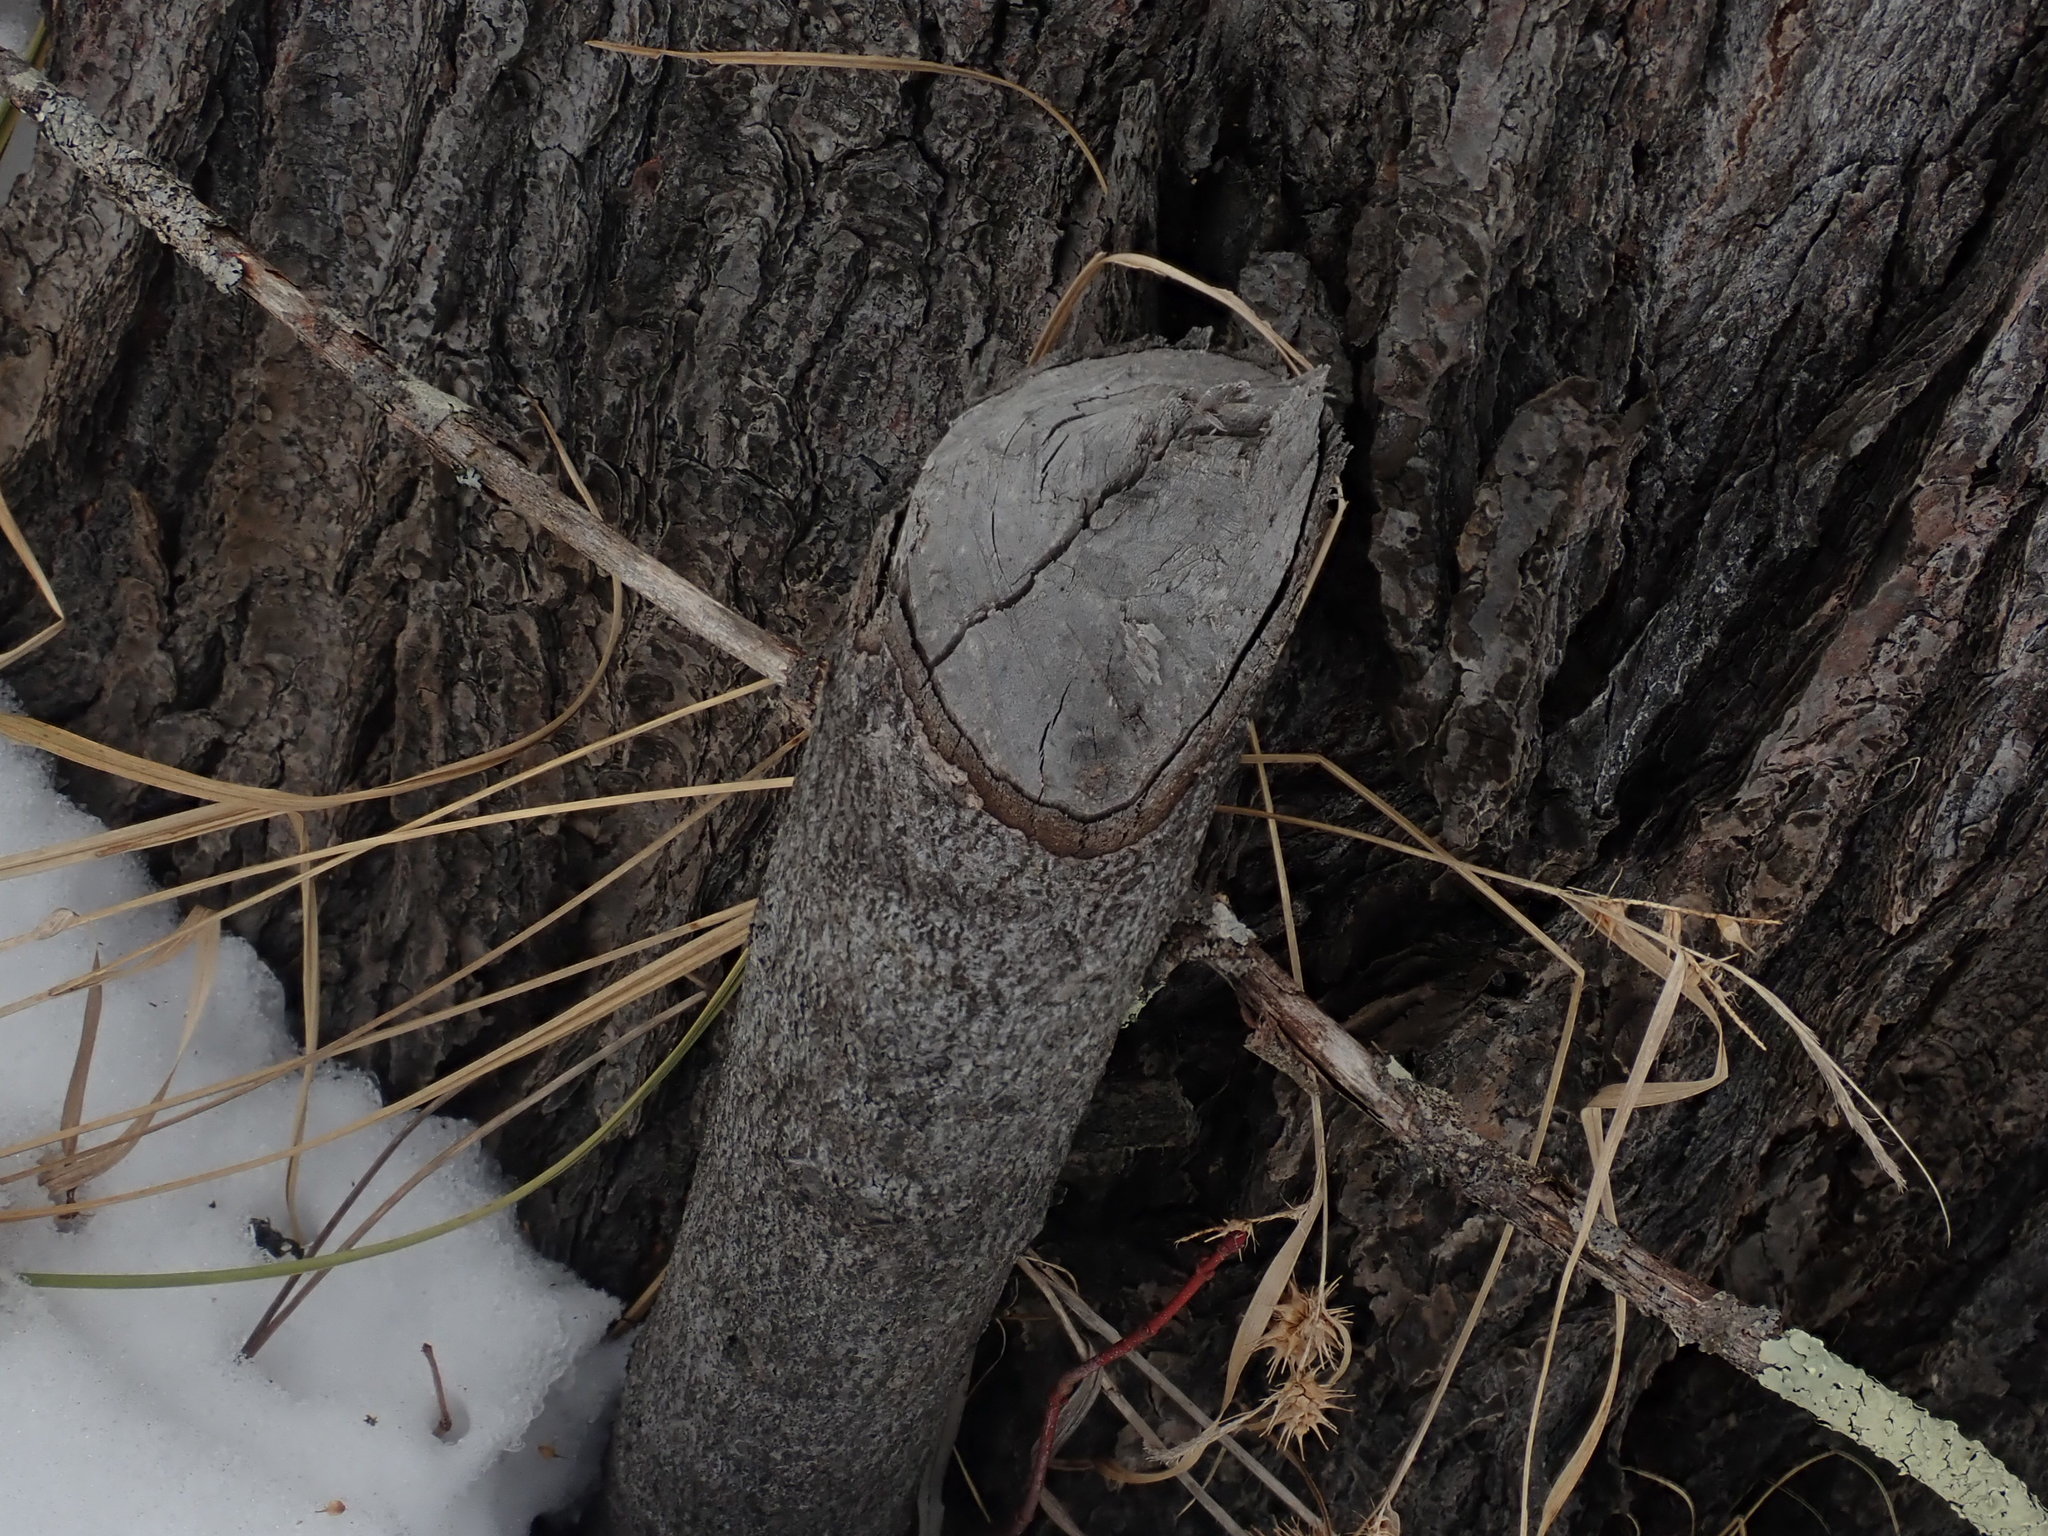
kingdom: Animalia
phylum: Chordata
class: Mammalia
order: Rodentia
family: Castoridae
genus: Castor
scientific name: Castor canadensis
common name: American beaver
